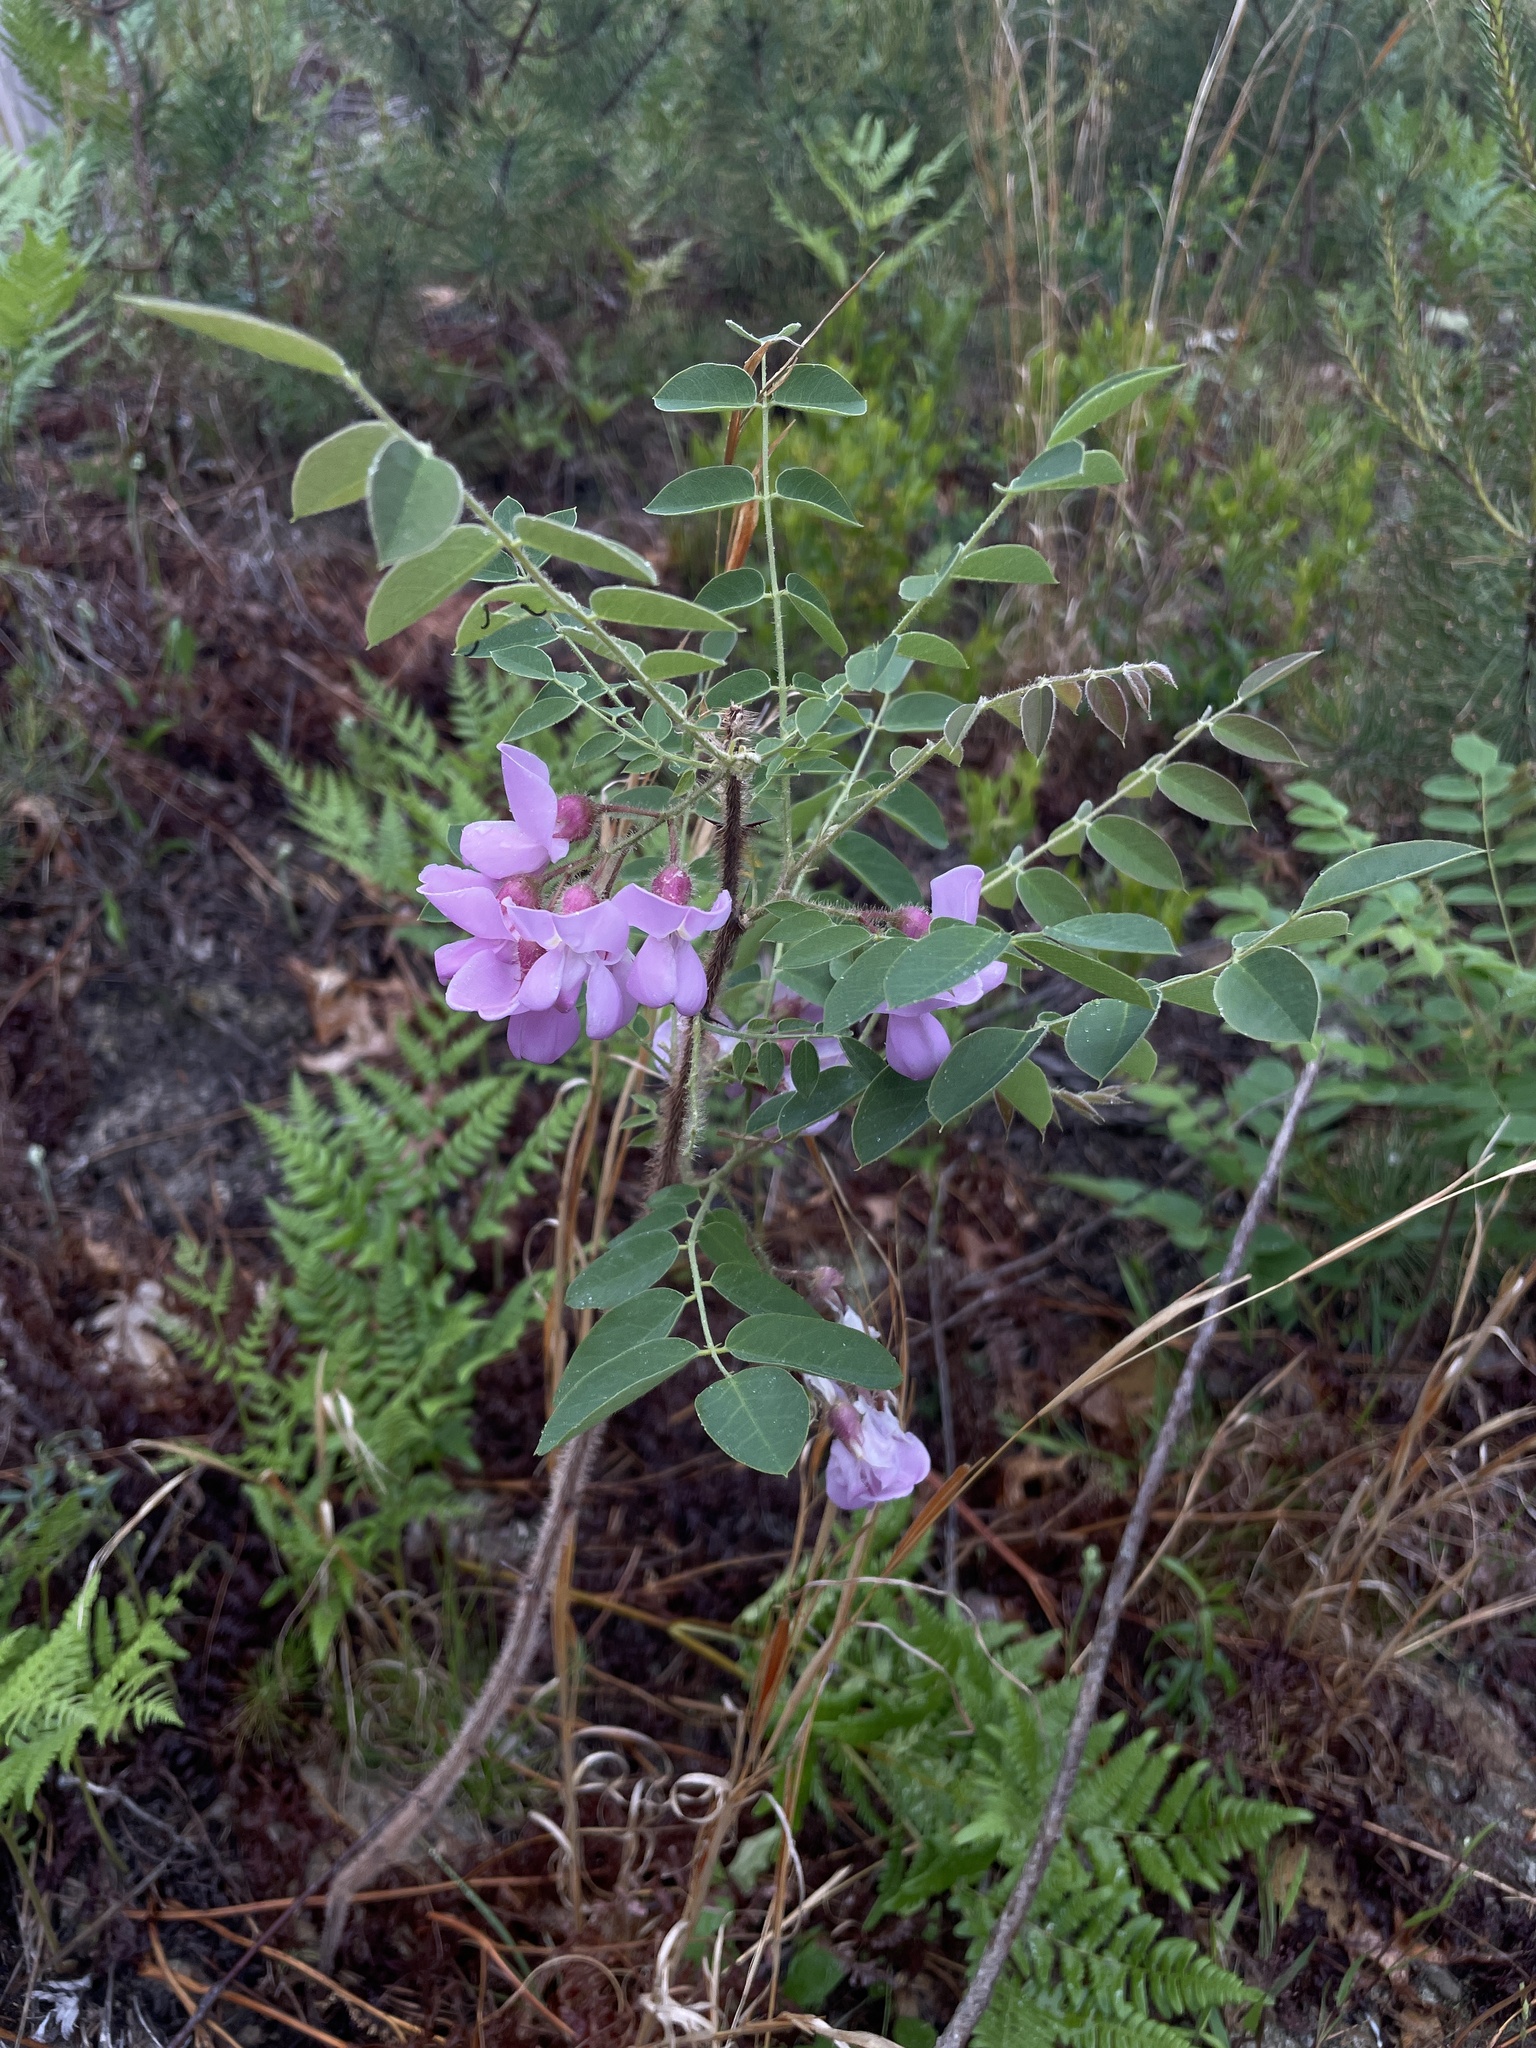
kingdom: Plantae
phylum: Tracheophyta
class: Magnoliopsida
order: Fabales
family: Fabaceae
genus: Robinia
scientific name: Robinia hispida
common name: Bristly locust
